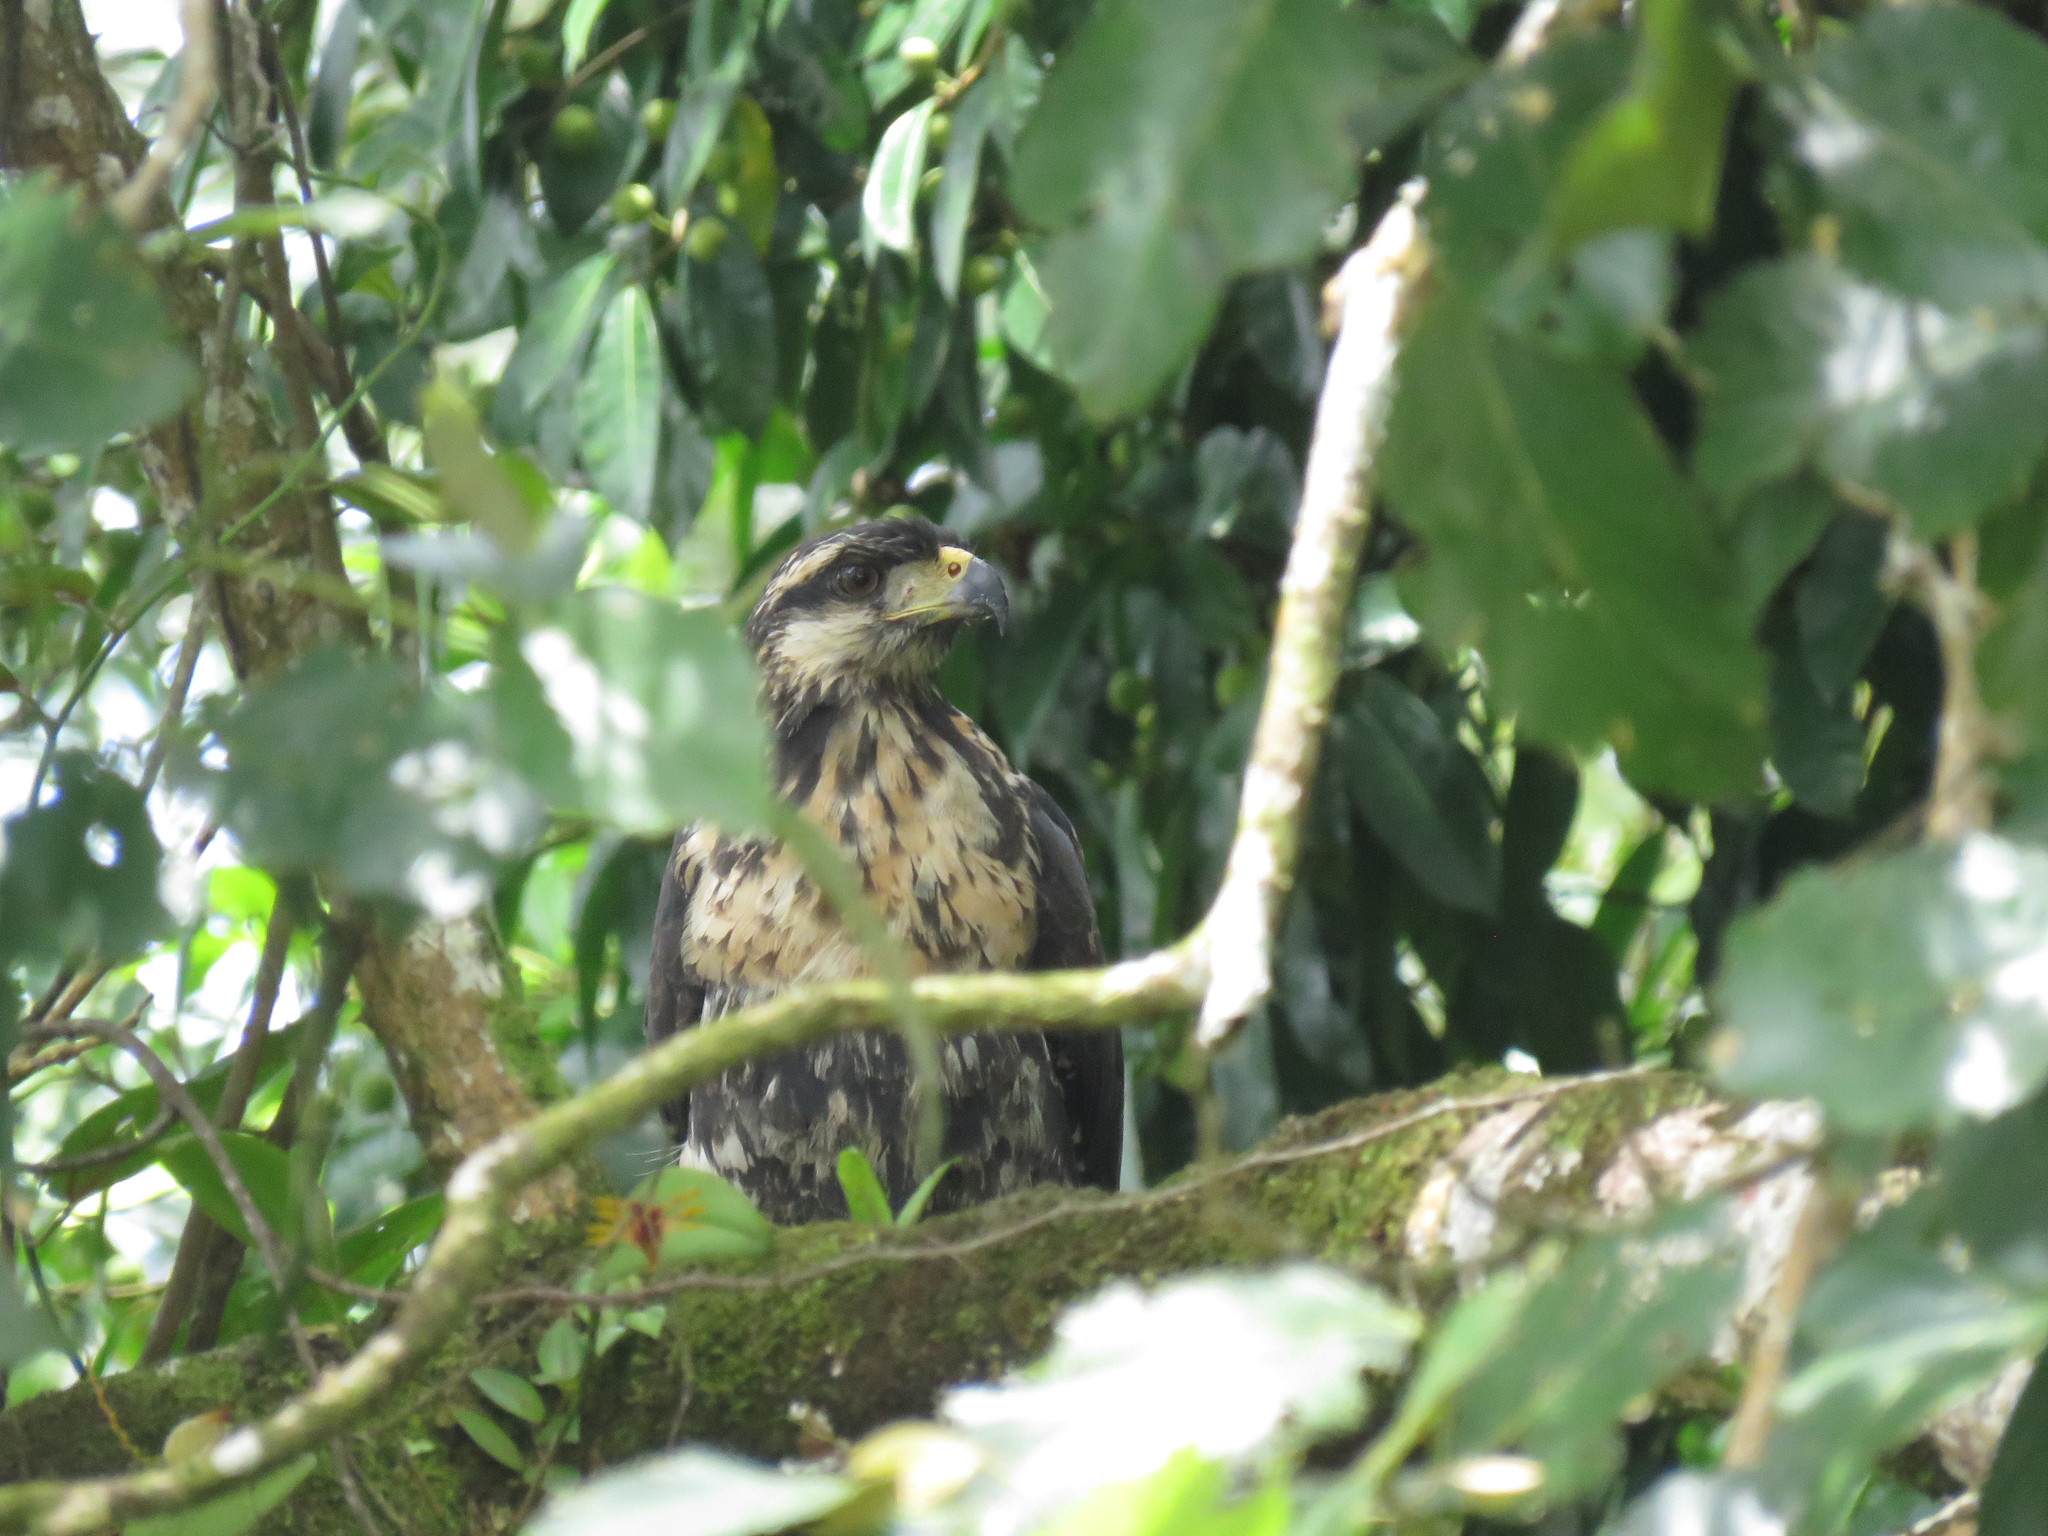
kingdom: Animalia
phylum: Chordata
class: Aves
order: Accipitriformes
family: Accipitridae
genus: Buteogallus
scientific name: Buteogallus urubitinga
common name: Great black hawk
